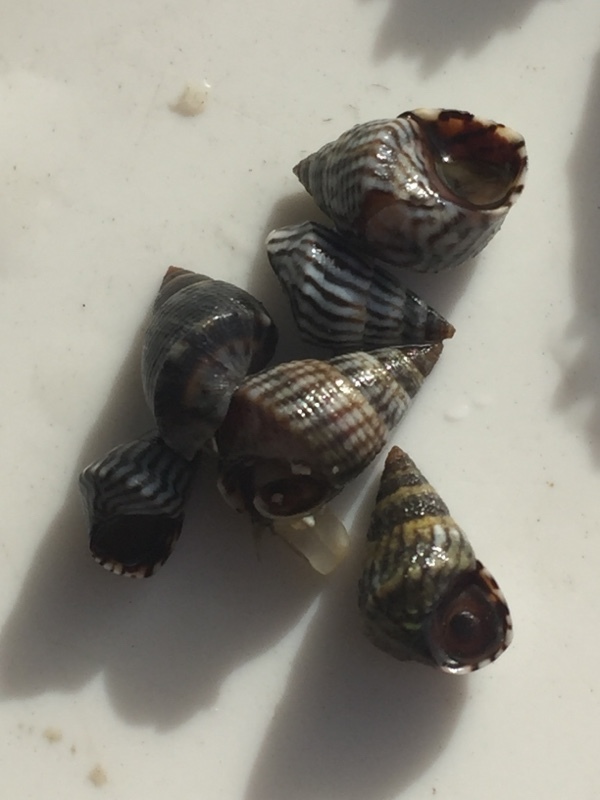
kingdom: Animalia
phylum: Mollusca
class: Gastropoda
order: Littorinimorpha
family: Littorinidae
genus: Echinolittorina
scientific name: Echinolittorina ziczac
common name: Zebra periwinkle
